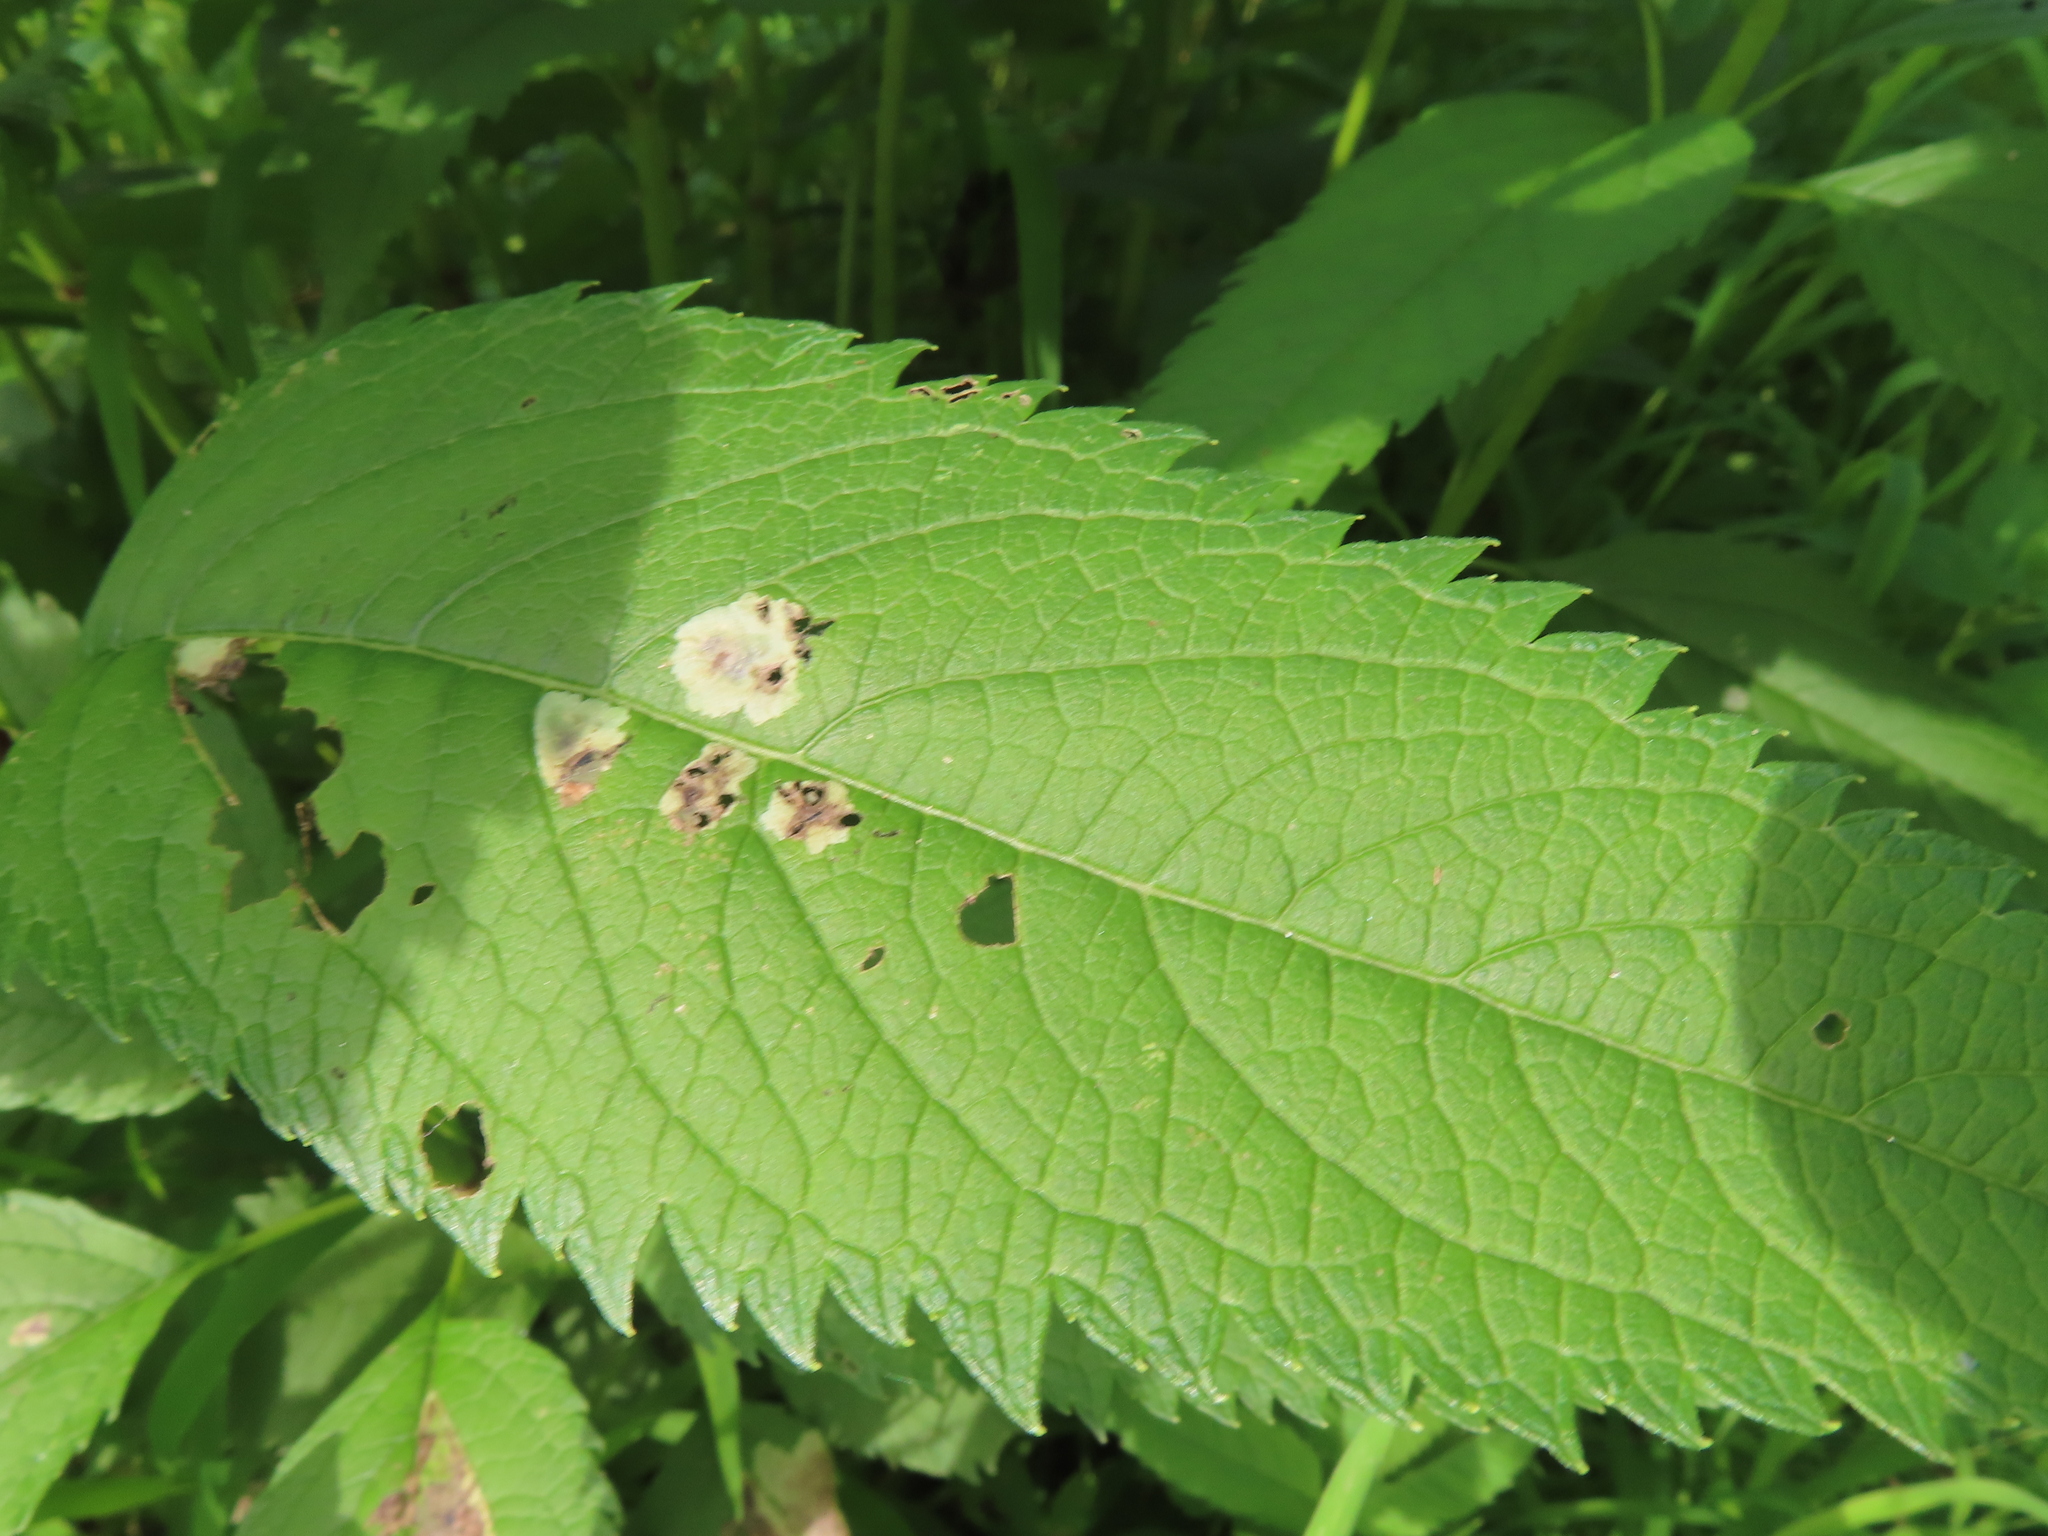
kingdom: Animalia
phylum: Arthropoda
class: Insecta
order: Diptera
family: Agromyzidae
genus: Calycomyza
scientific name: Calycomyza flavinotum
